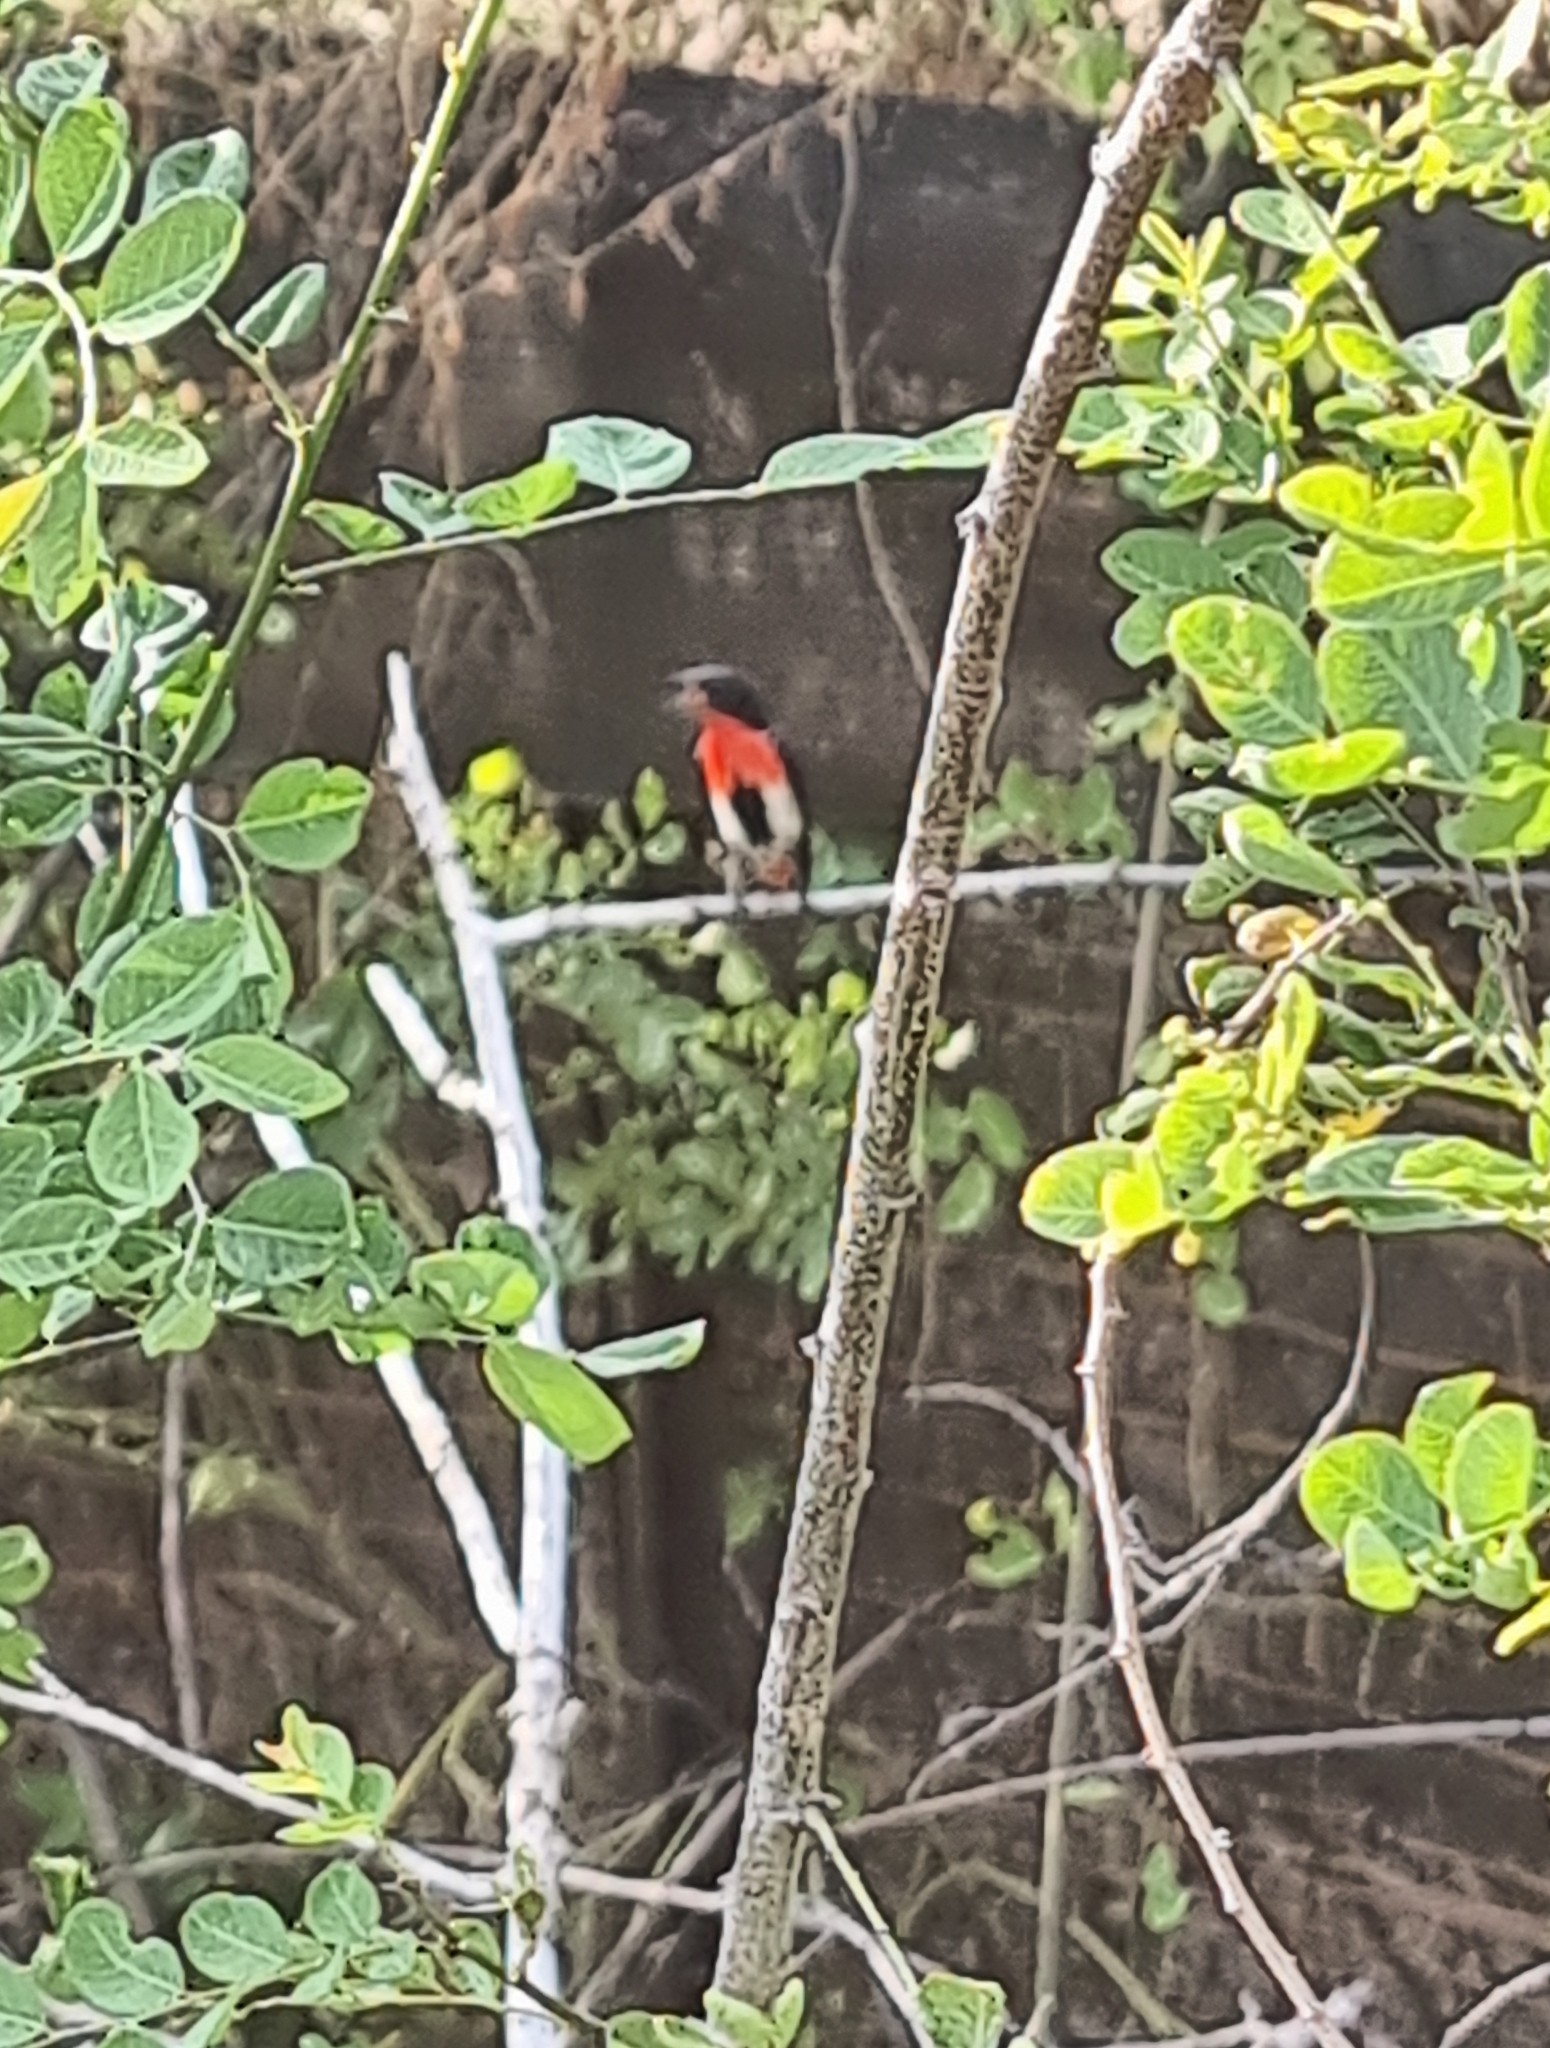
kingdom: Animalia
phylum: Chordata
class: Aves
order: Passeriformes
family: Dicaeidae
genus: Dicaeum
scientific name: Dicaeum hirundinaceum
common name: Mistletoebird
